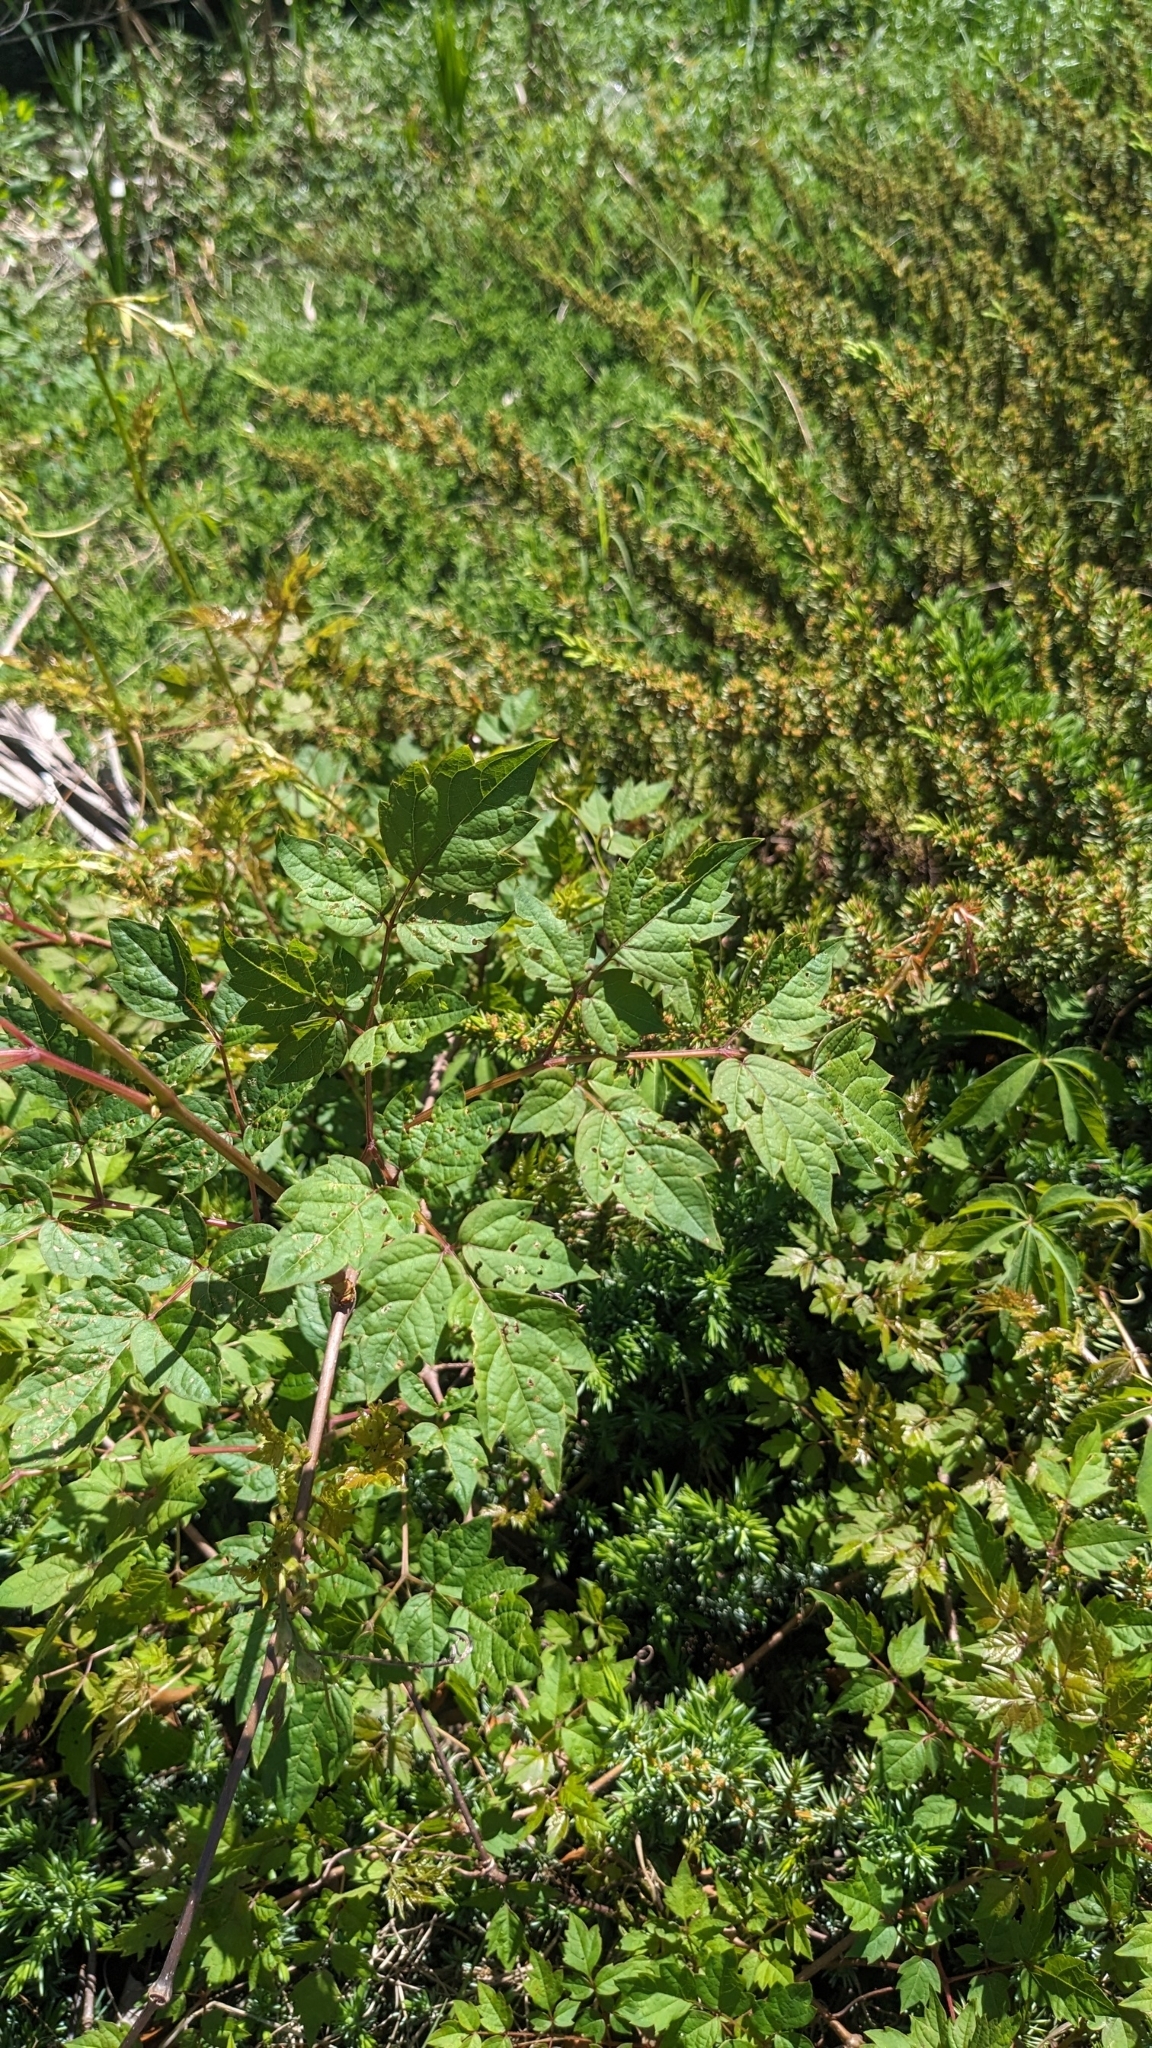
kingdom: Plantae
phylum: Tracheophyta
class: Magnoliopsida
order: Vitales
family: Vitaceae
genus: Nekemias
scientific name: Nekemias arborea
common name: Peppervine
